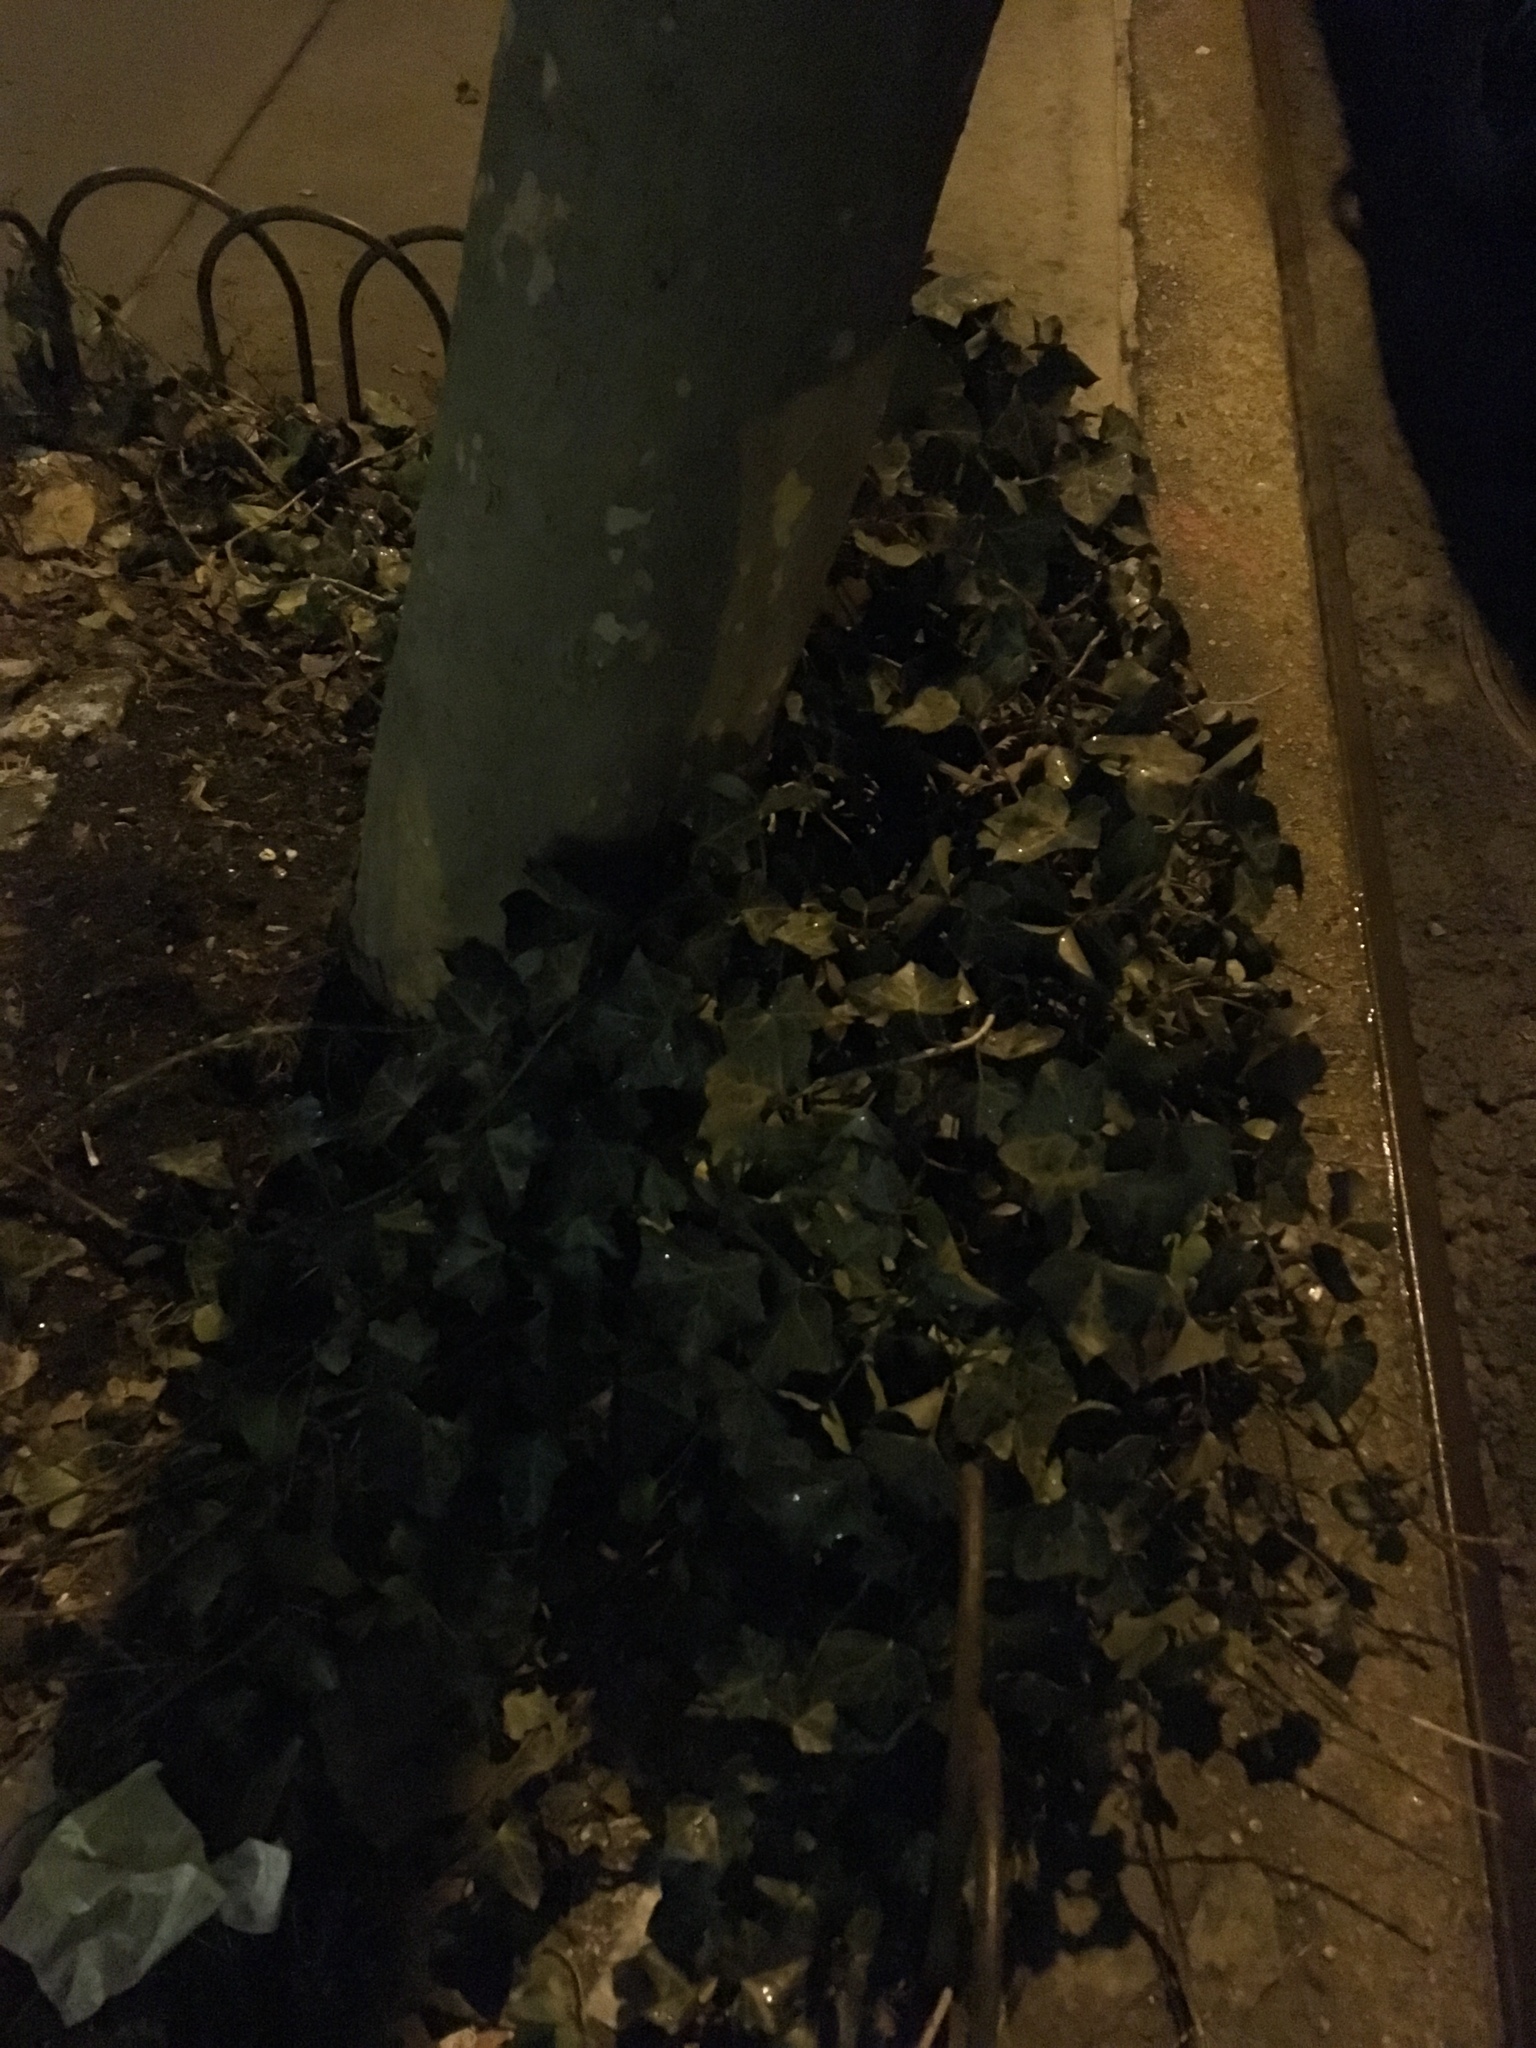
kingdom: Plantae
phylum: Tracheophyta
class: Magnoliopsida
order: Apiales
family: Araliaceae
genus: Hedera
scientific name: Hedera helix
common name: Ivy
